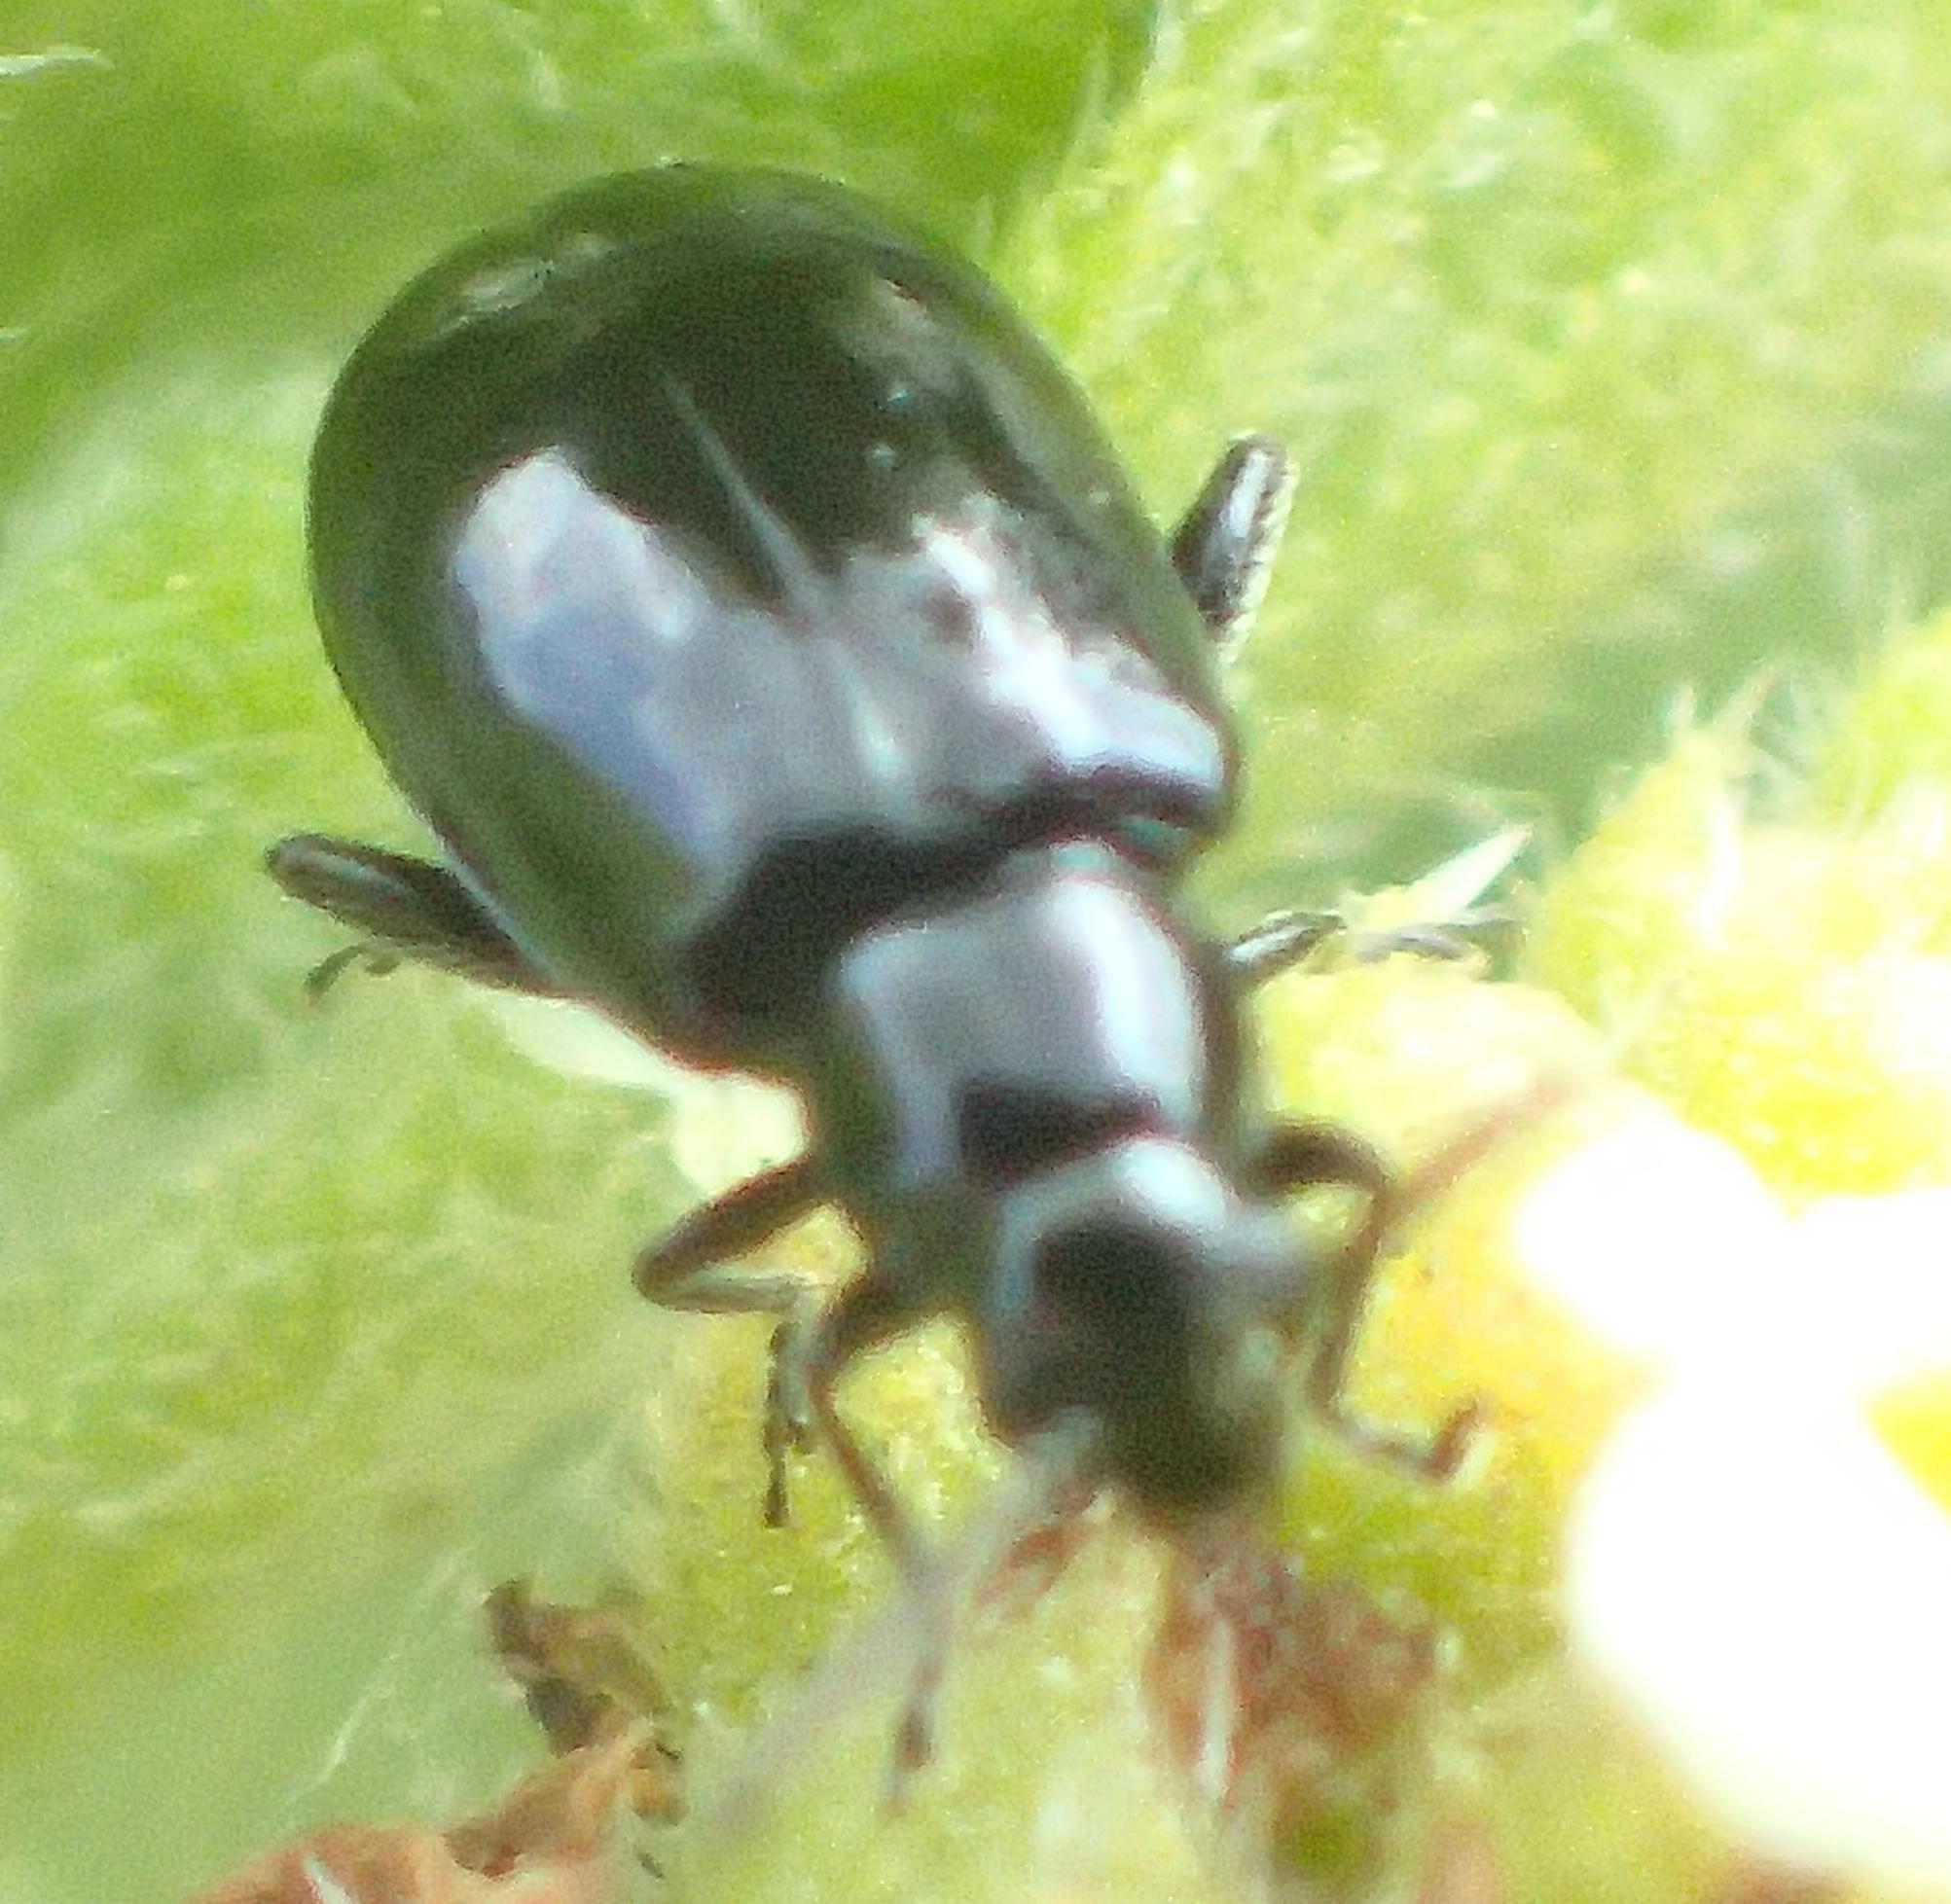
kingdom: Animalia
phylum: Arthropoda
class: Insecta
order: Coleoptera
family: Chrysomelidae
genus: Decaria
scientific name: Decaria
